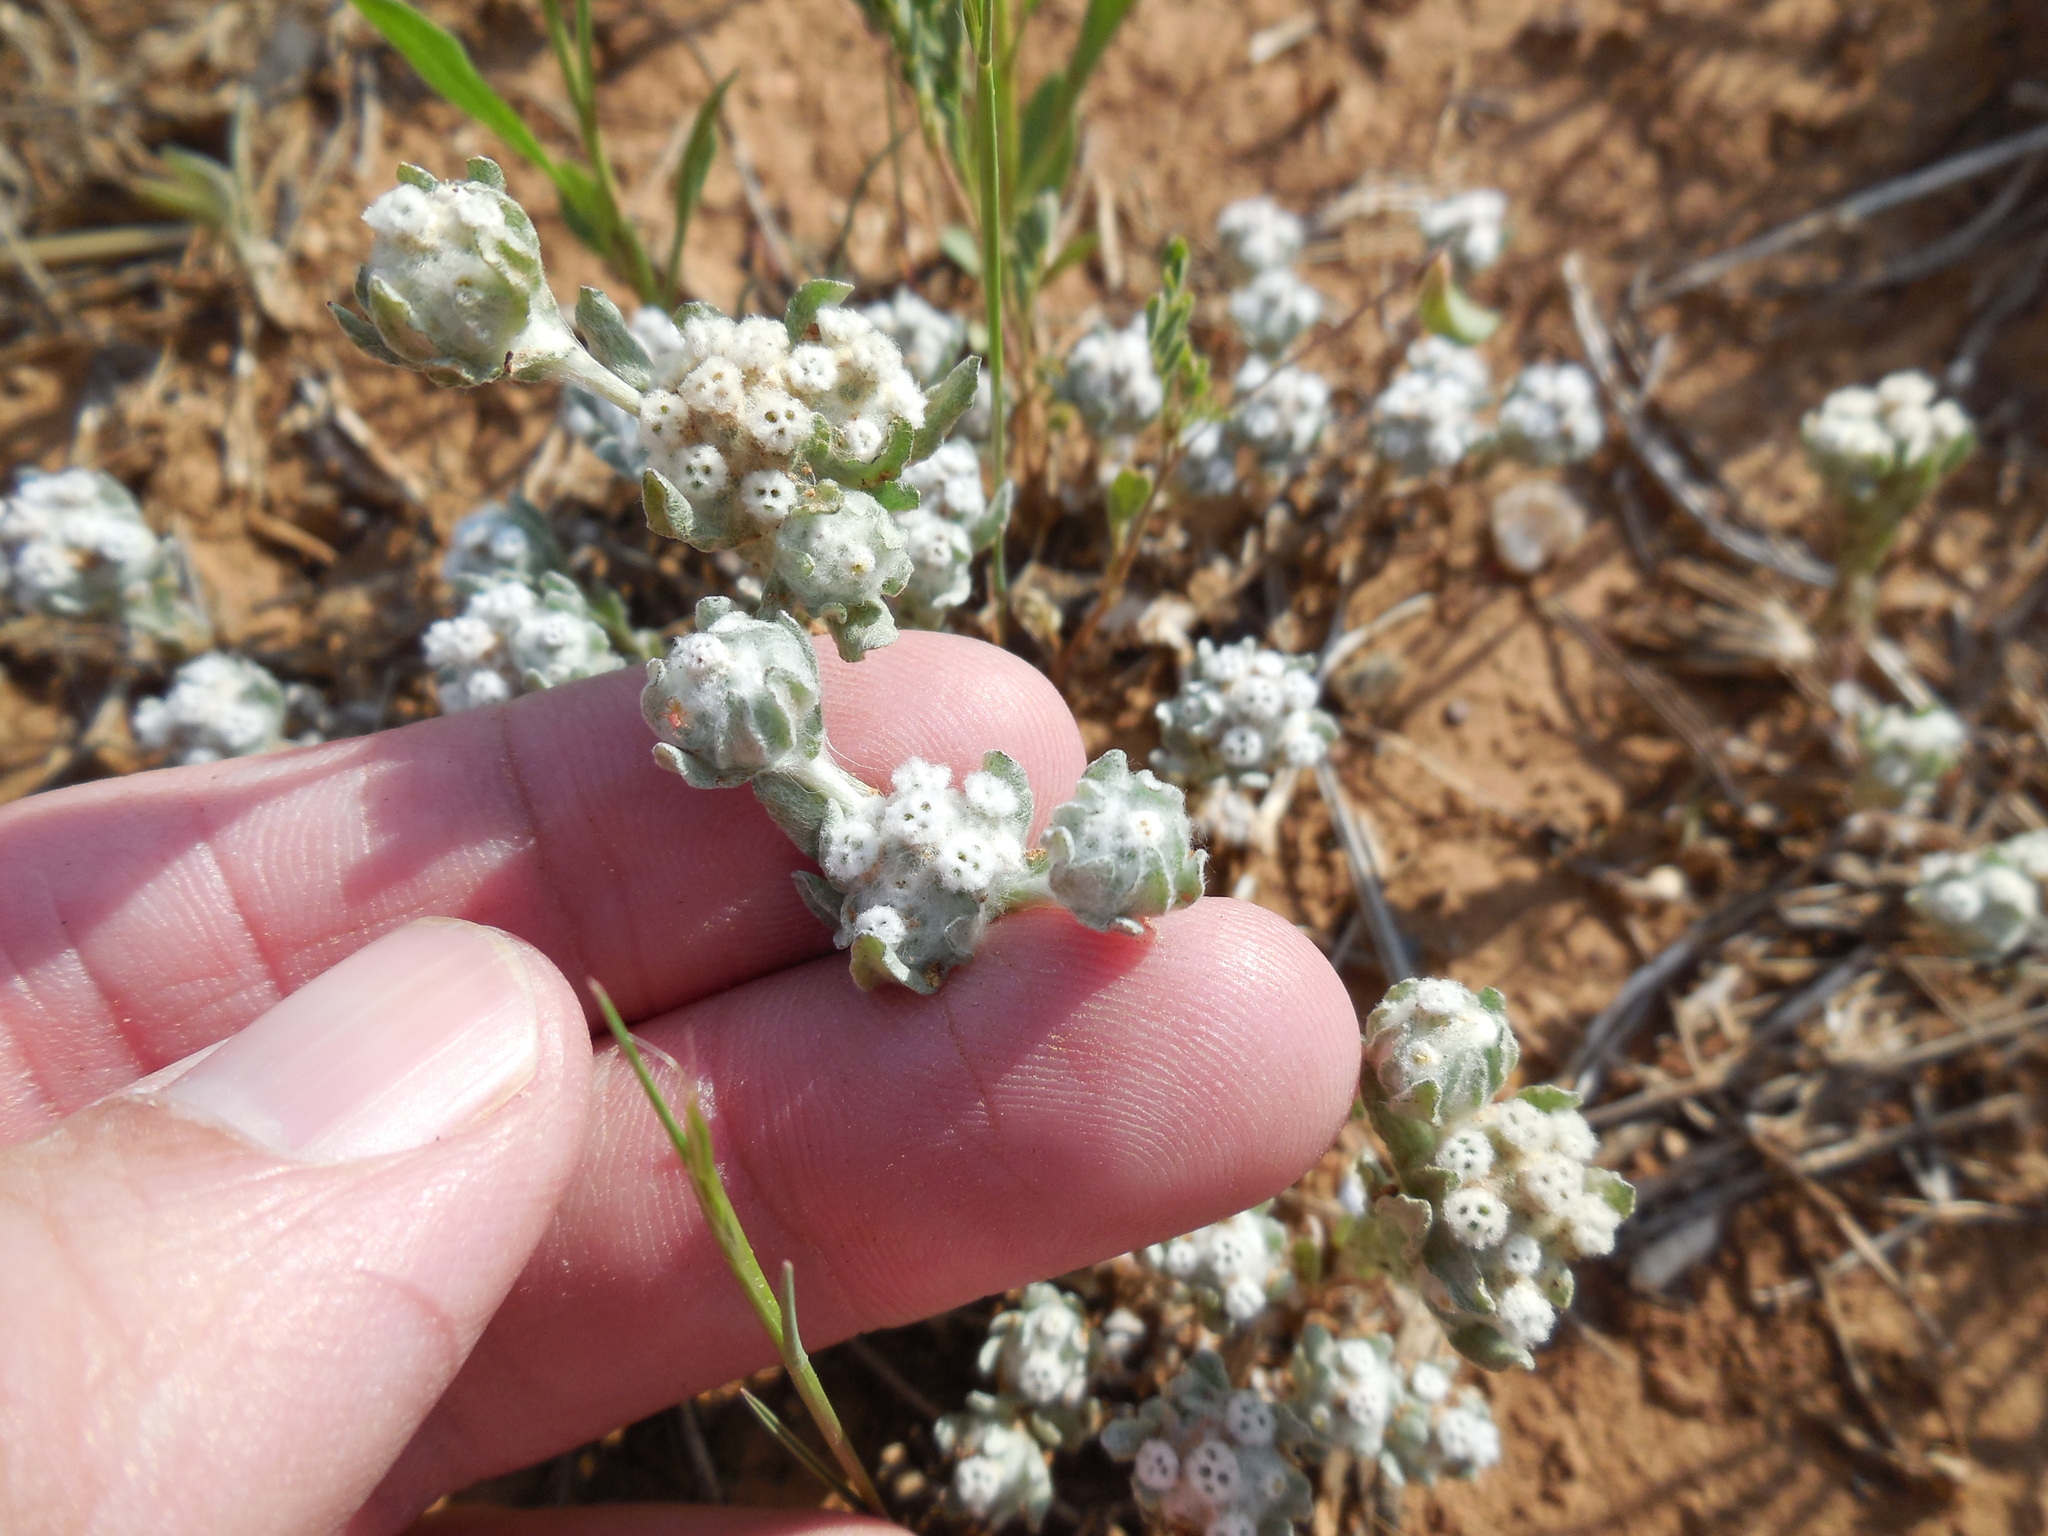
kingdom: Plantae
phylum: Tracheophyta
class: Magnoliopsida
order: Asterales
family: Asteraceae
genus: Diaperia
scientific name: Diaperia verna
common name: Many-stem rabbit-tobacco
